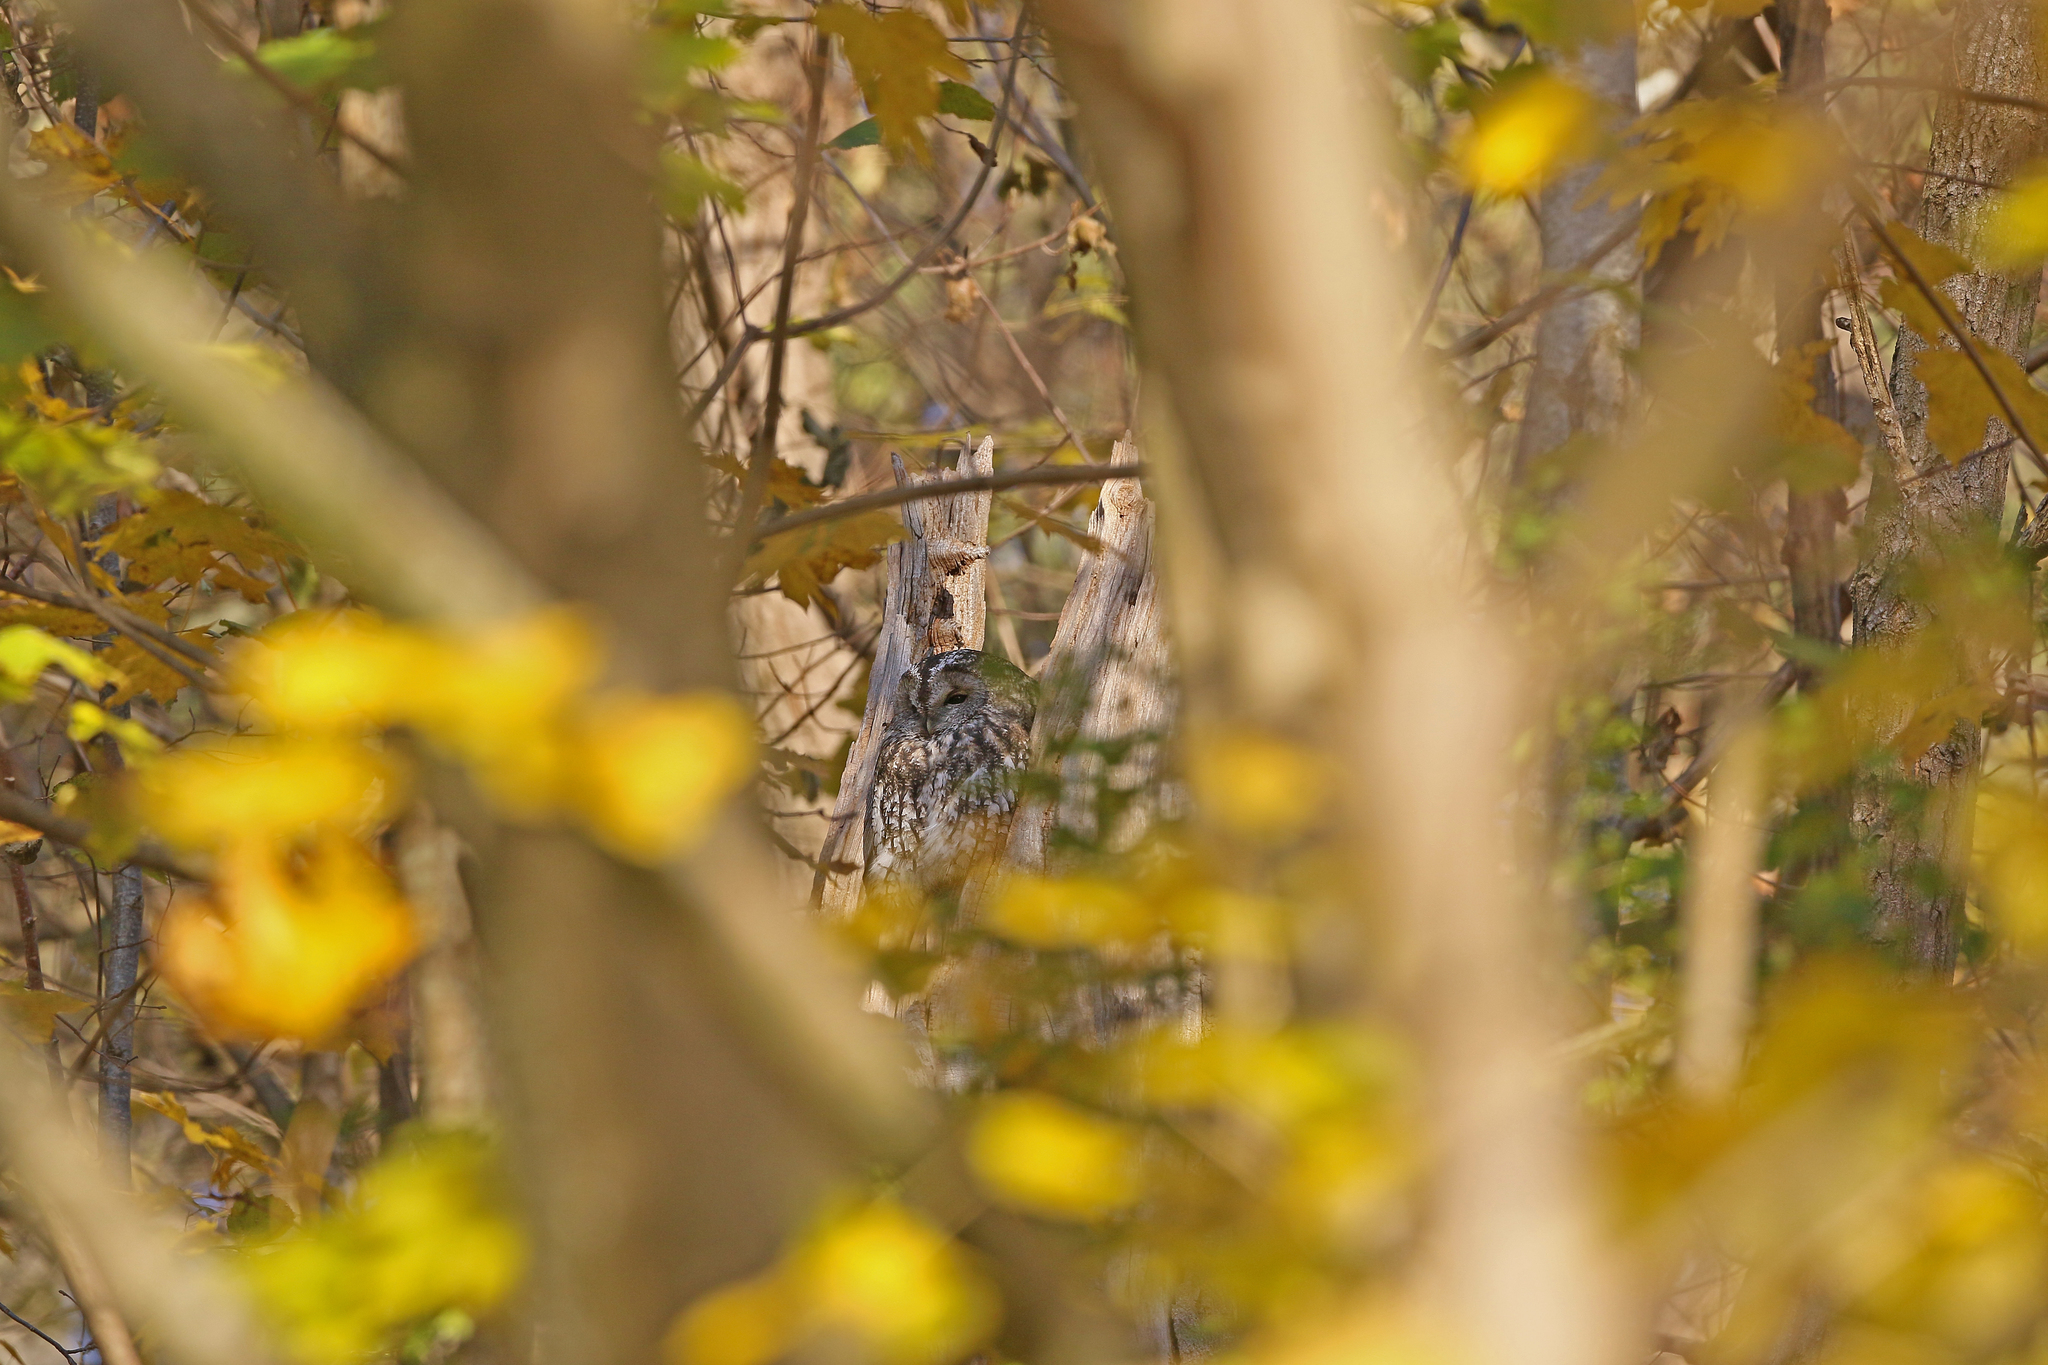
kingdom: Animalia
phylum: Chordata
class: Aves
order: Strigiformes
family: Strigidae
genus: Strix
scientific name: Strix aluco
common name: Tawny owl
